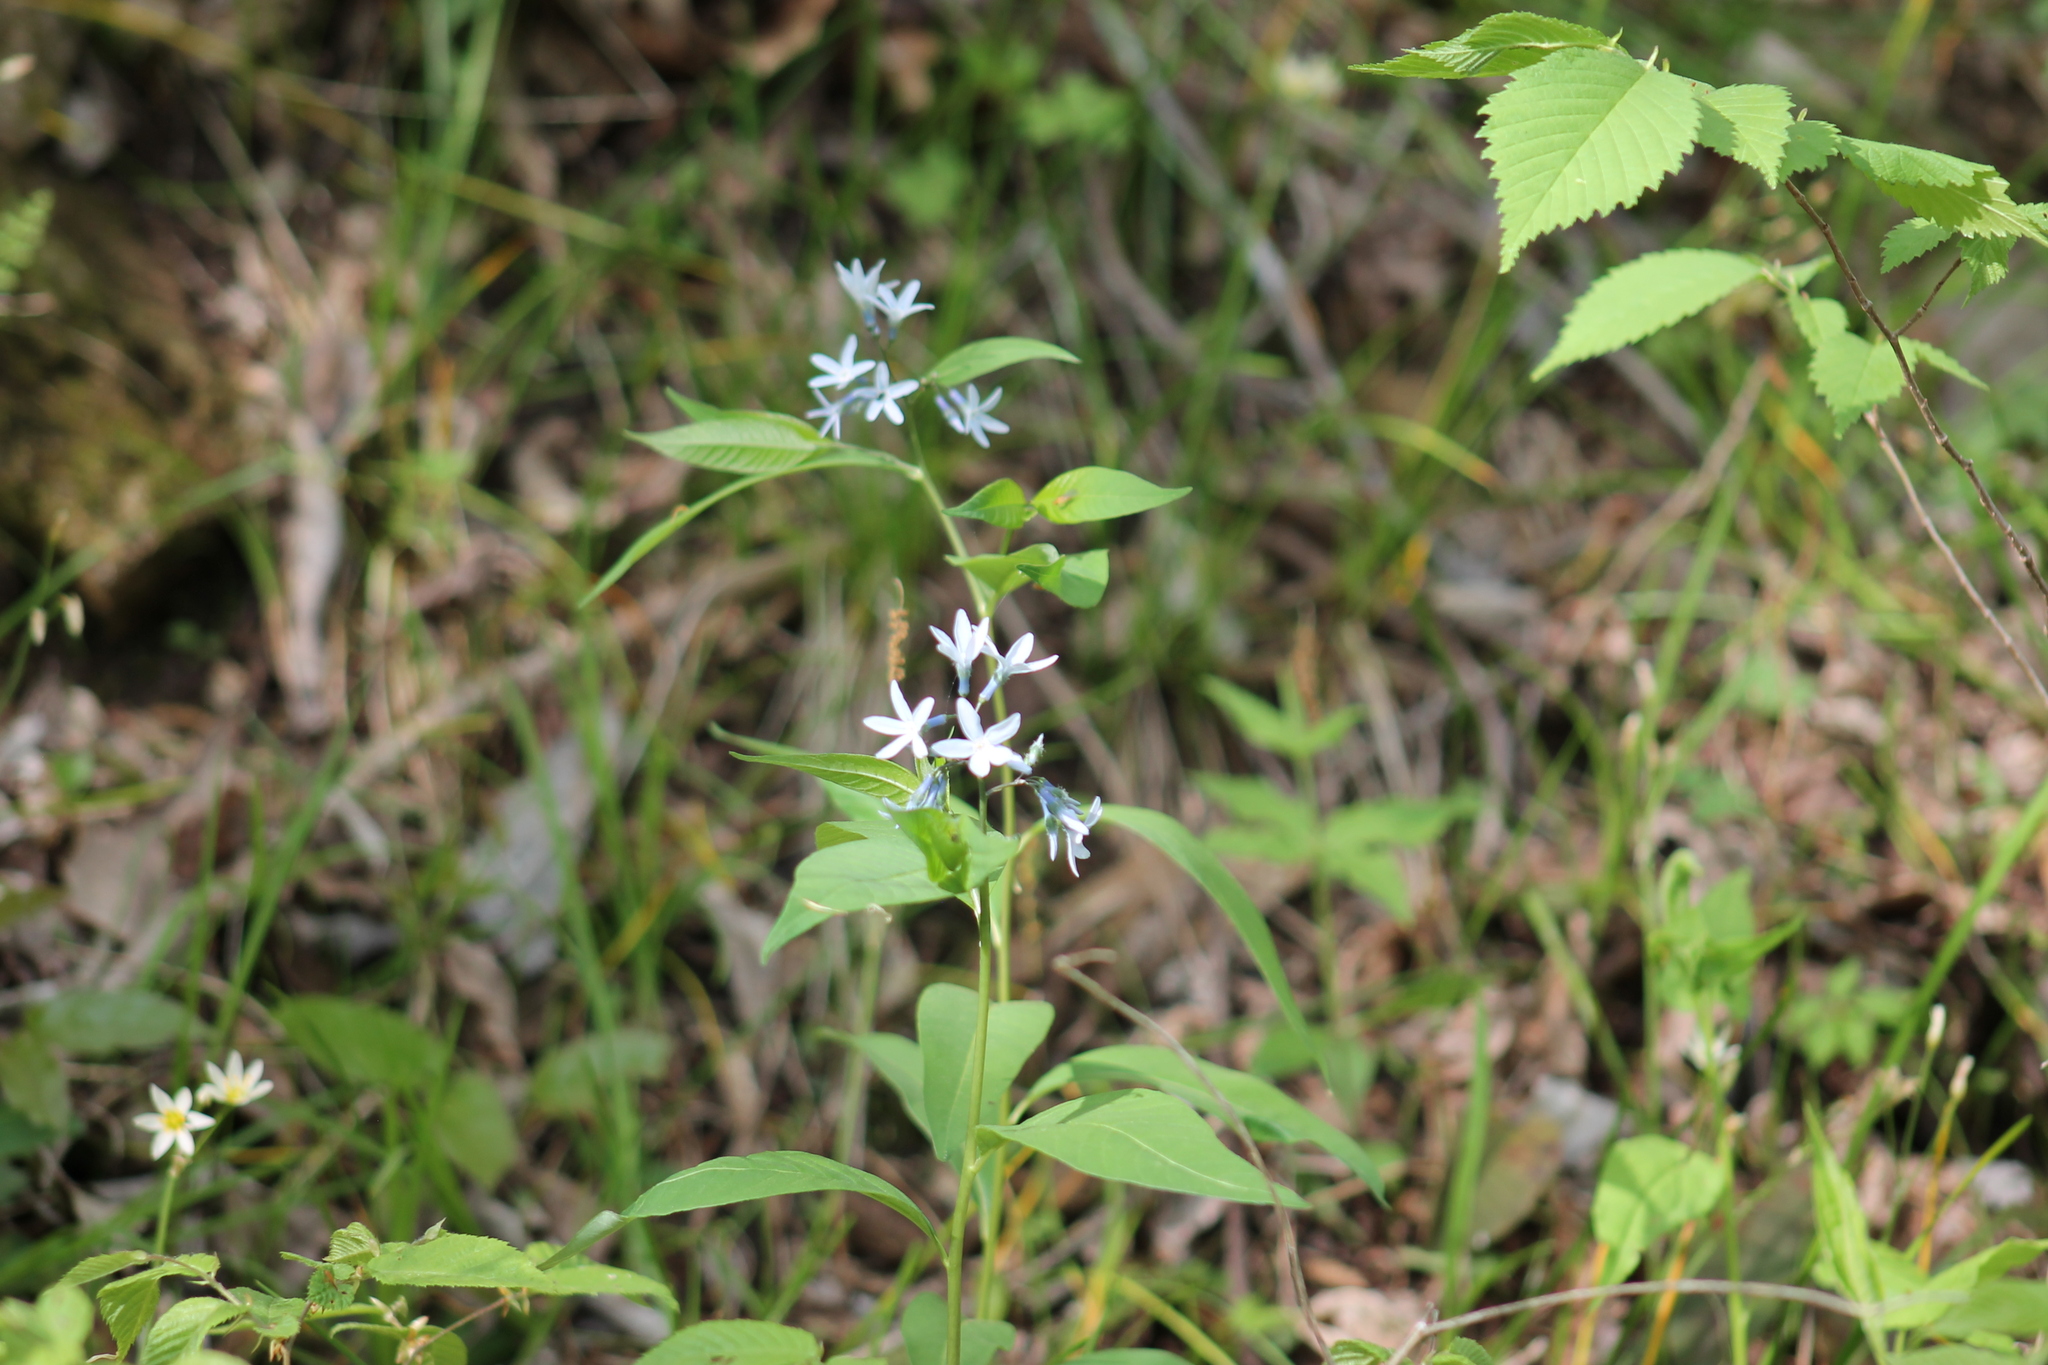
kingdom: Plantae
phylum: Tracheophyta
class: Magnoliopsida
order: Gentianales
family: Apocynaceae
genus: Amsonia
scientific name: Amsonia tabernaemontana
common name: Texas-star
